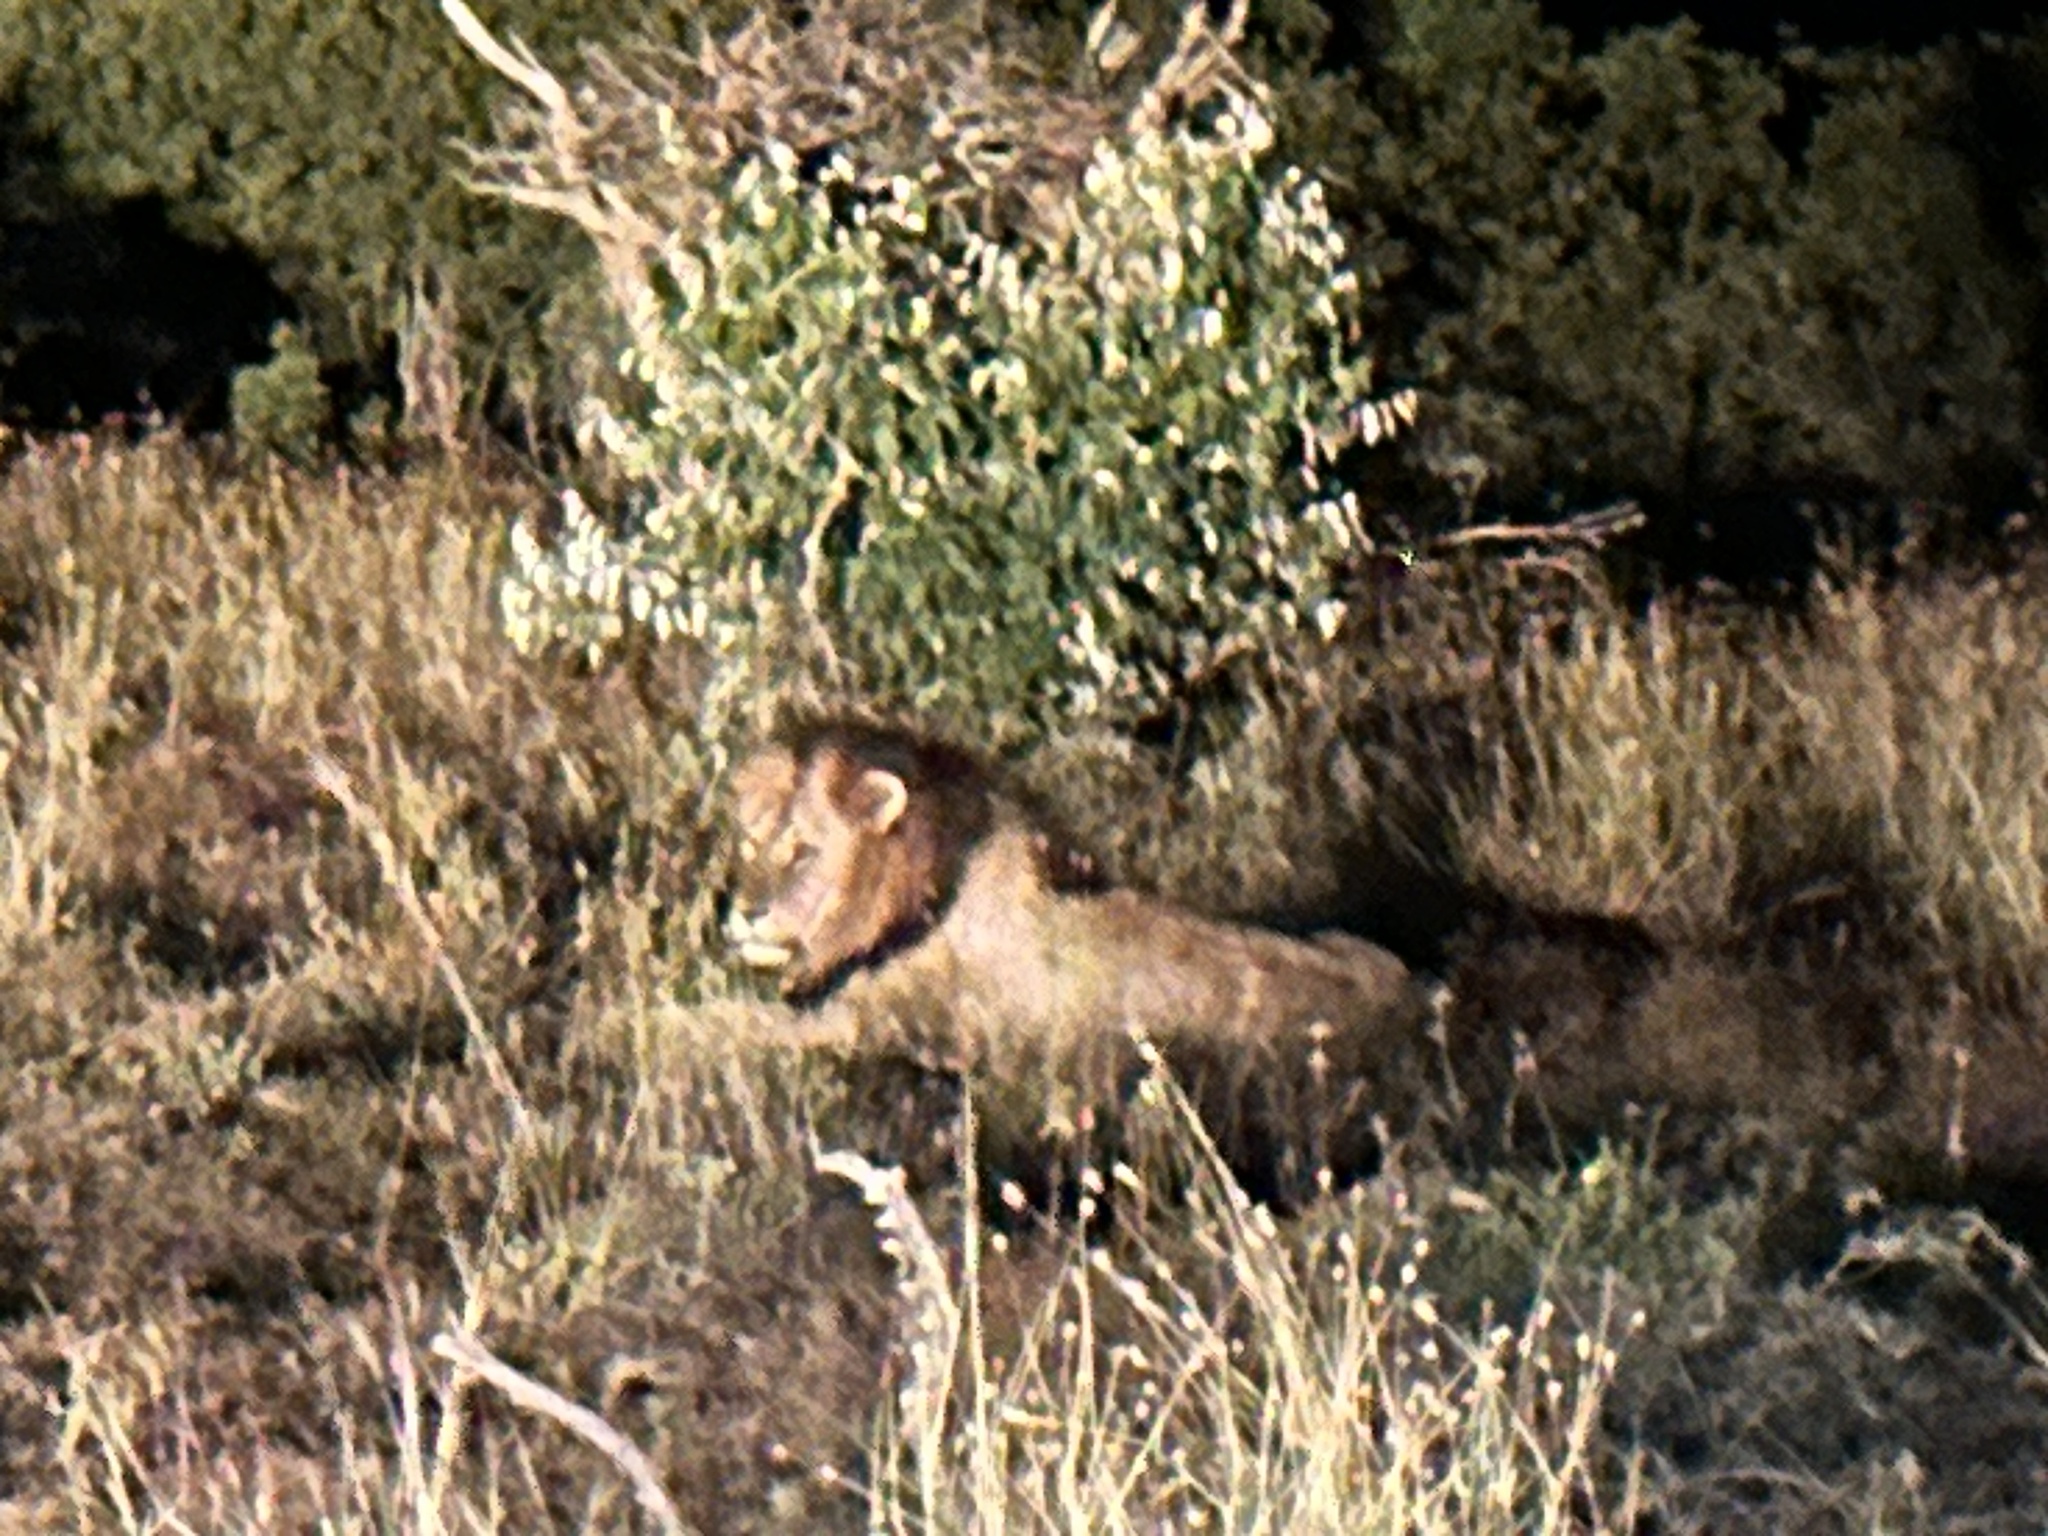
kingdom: Animalia
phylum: Chordata
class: Mammalia
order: Carnivora
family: Felidae
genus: Panthera
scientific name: Panthera leo
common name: Lion
